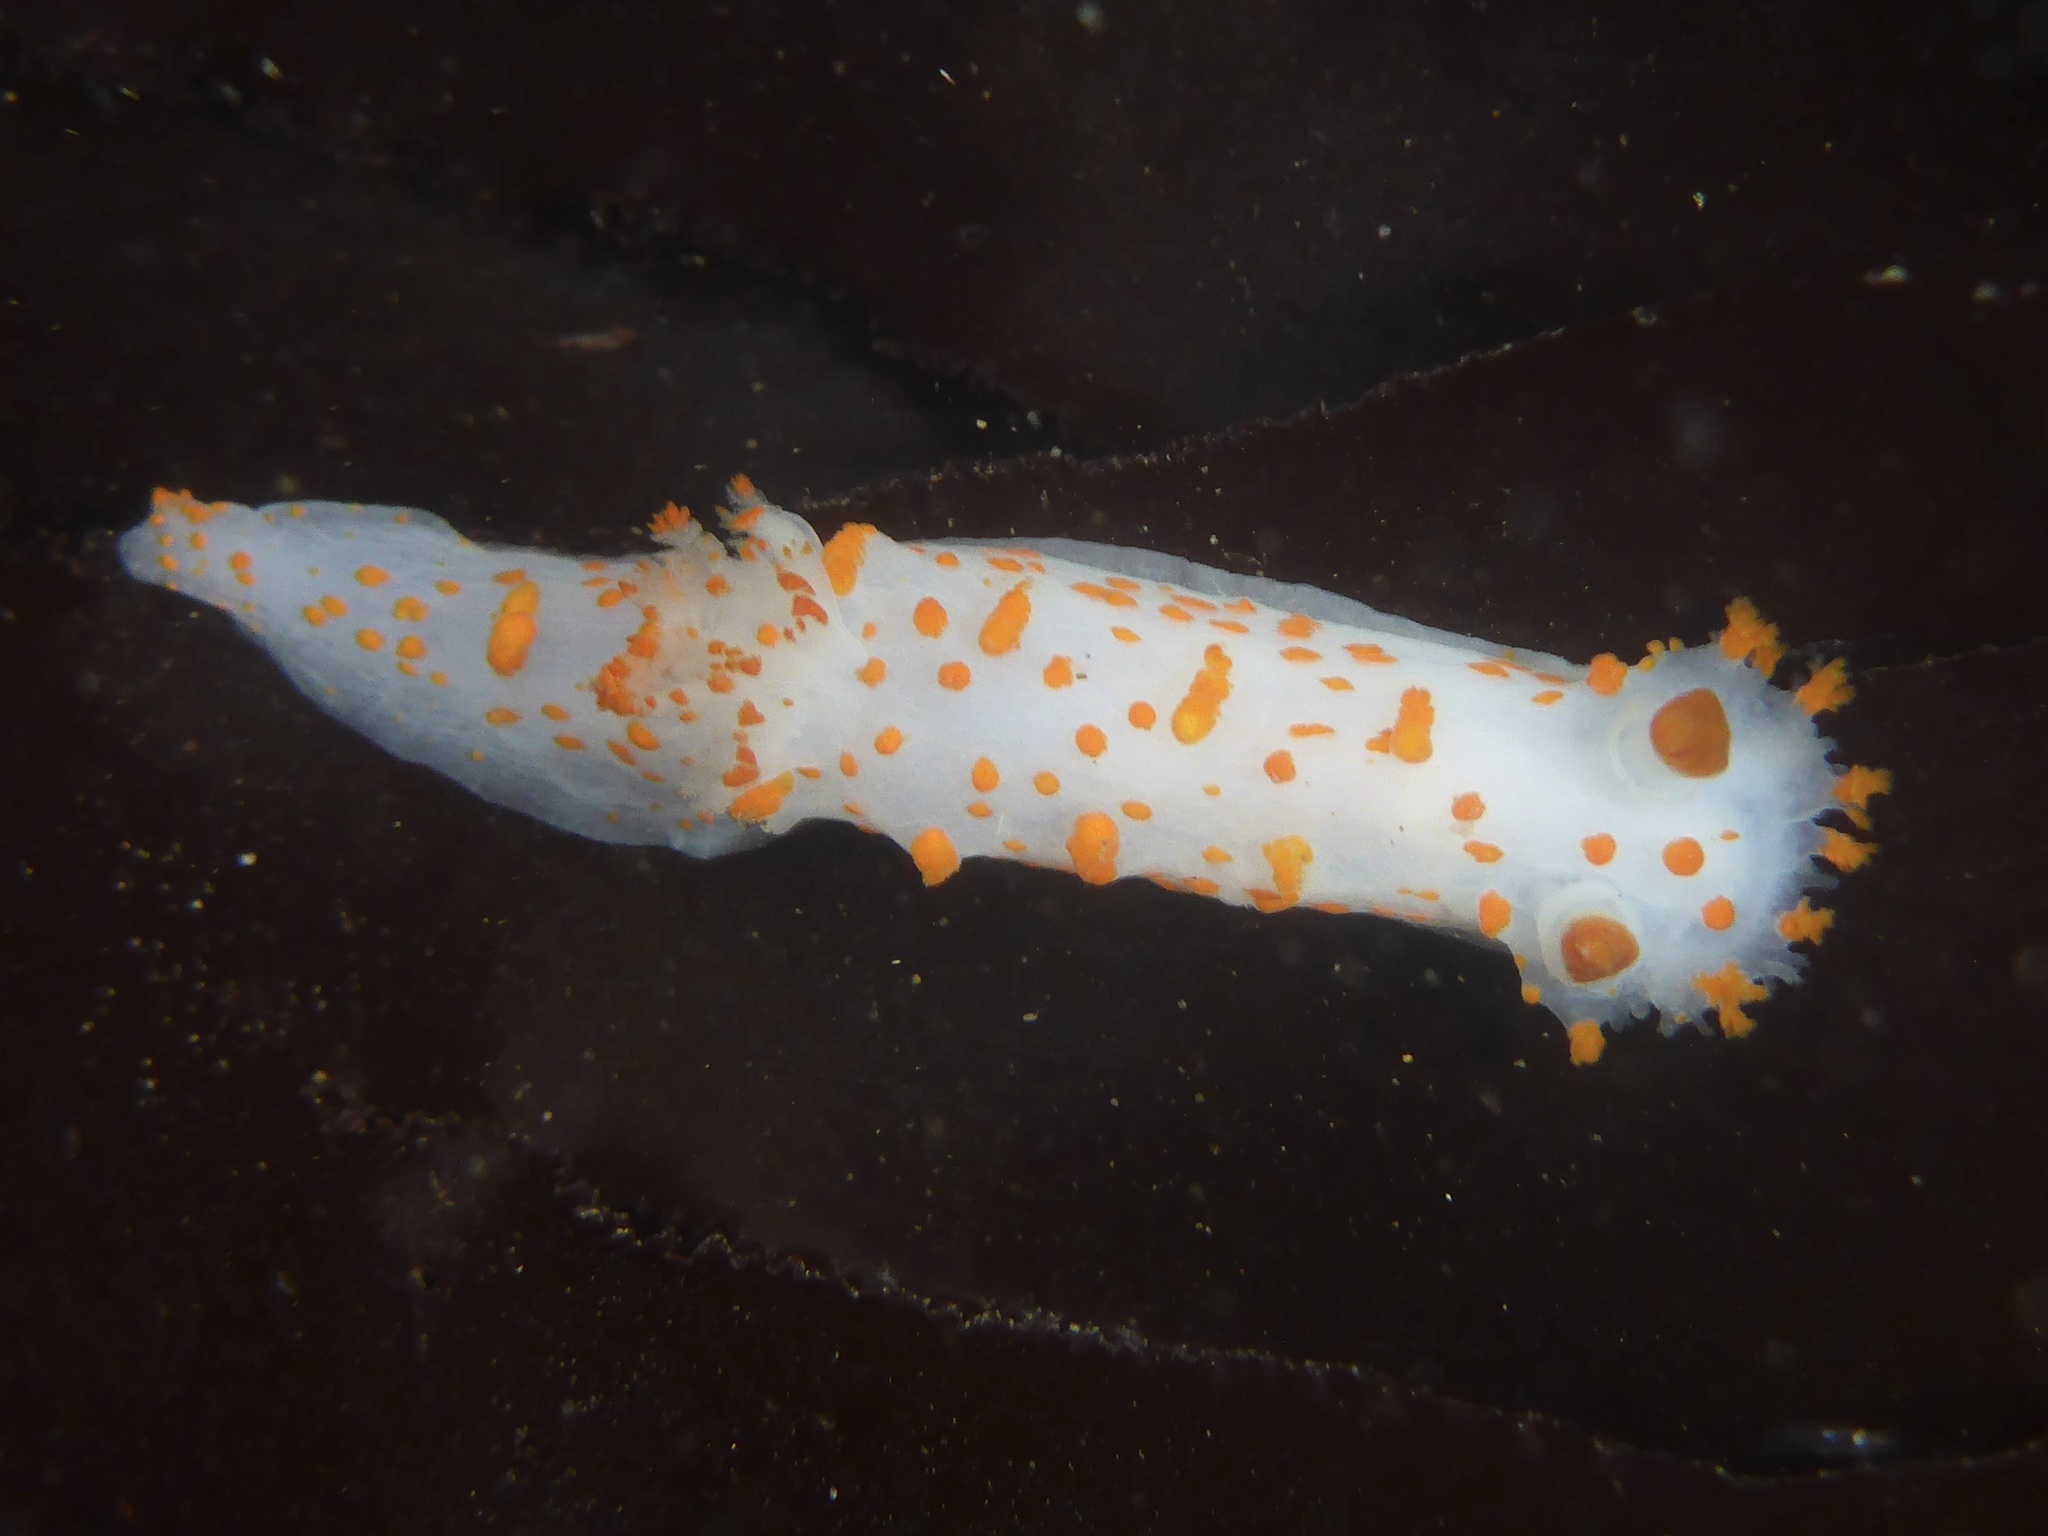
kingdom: Animalia
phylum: Mollusca
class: Gastropoda
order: Nudibranchia
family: Polyceridae
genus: Triopha
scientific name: Triopha catalinae
